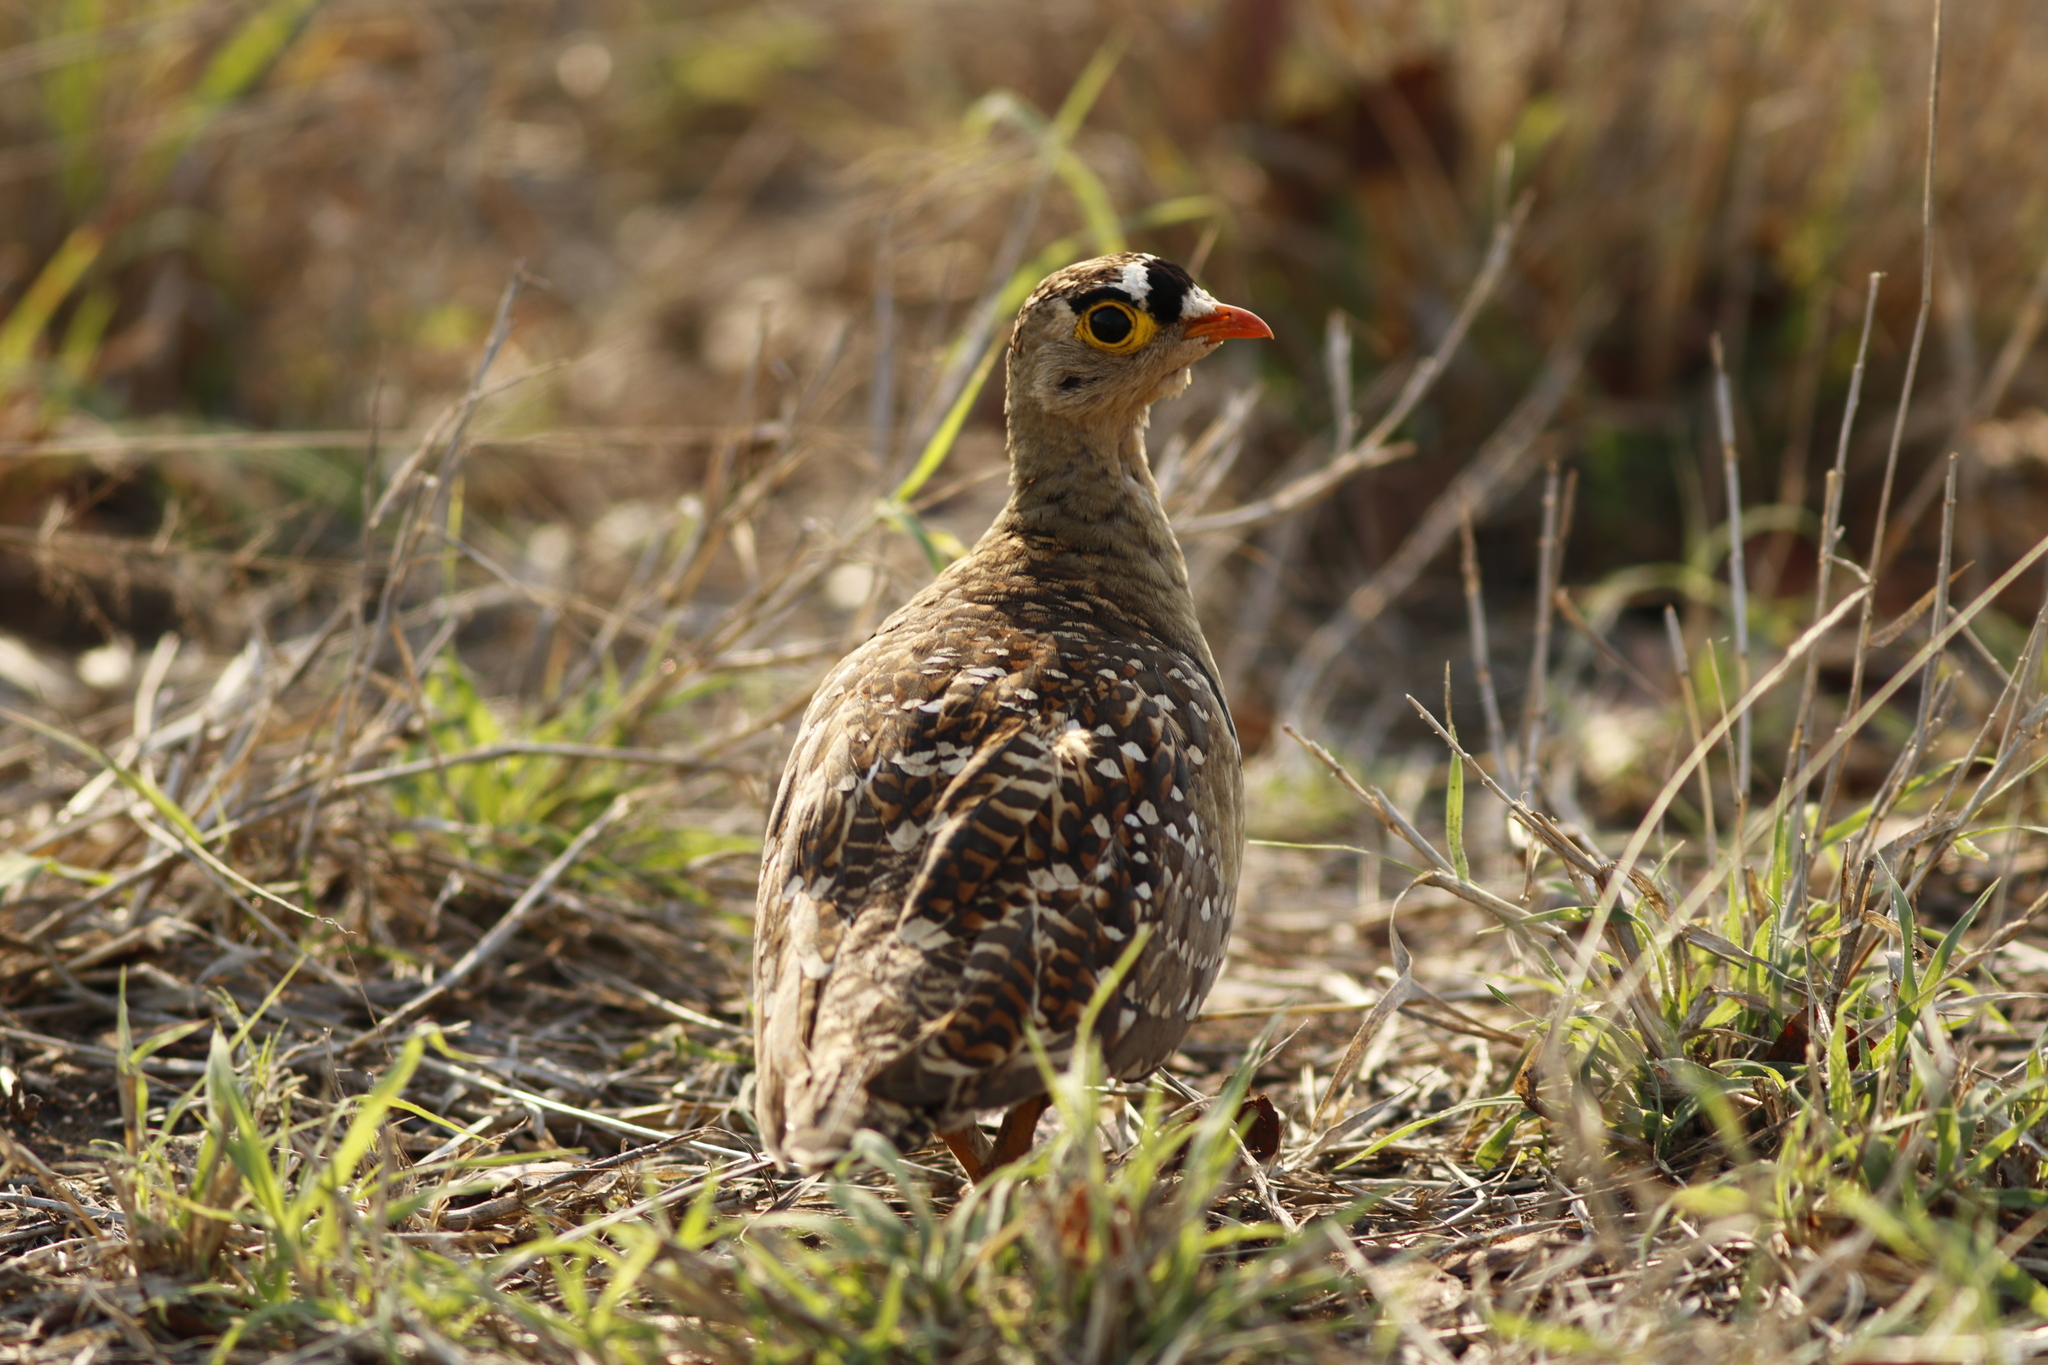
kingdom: Animalia
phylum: Chordata
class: Aves
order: Pteroclidiformes
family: Pteroclididae
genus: Pterocles
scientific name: Pterocles bicinctus
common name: Double-banded sandgrouse
